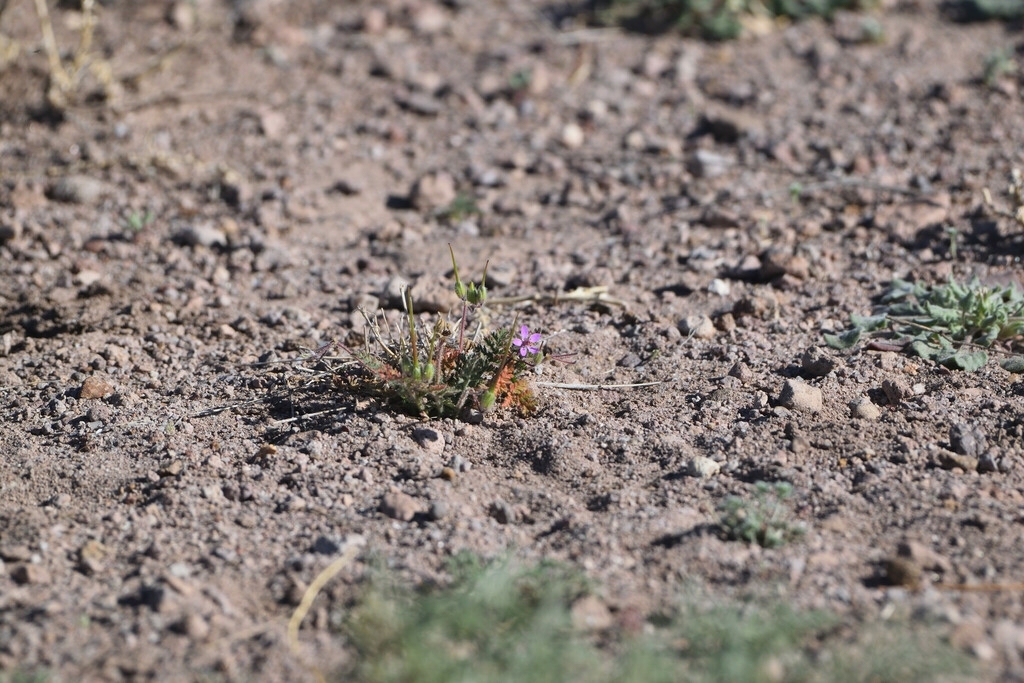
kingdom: Plantae
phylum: Tracheophyta
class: Magnoliopsida
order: Geraniales
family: Geraniaceae
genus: Erodium
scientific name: Erodium cicutarium
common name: Common stork's-bill
